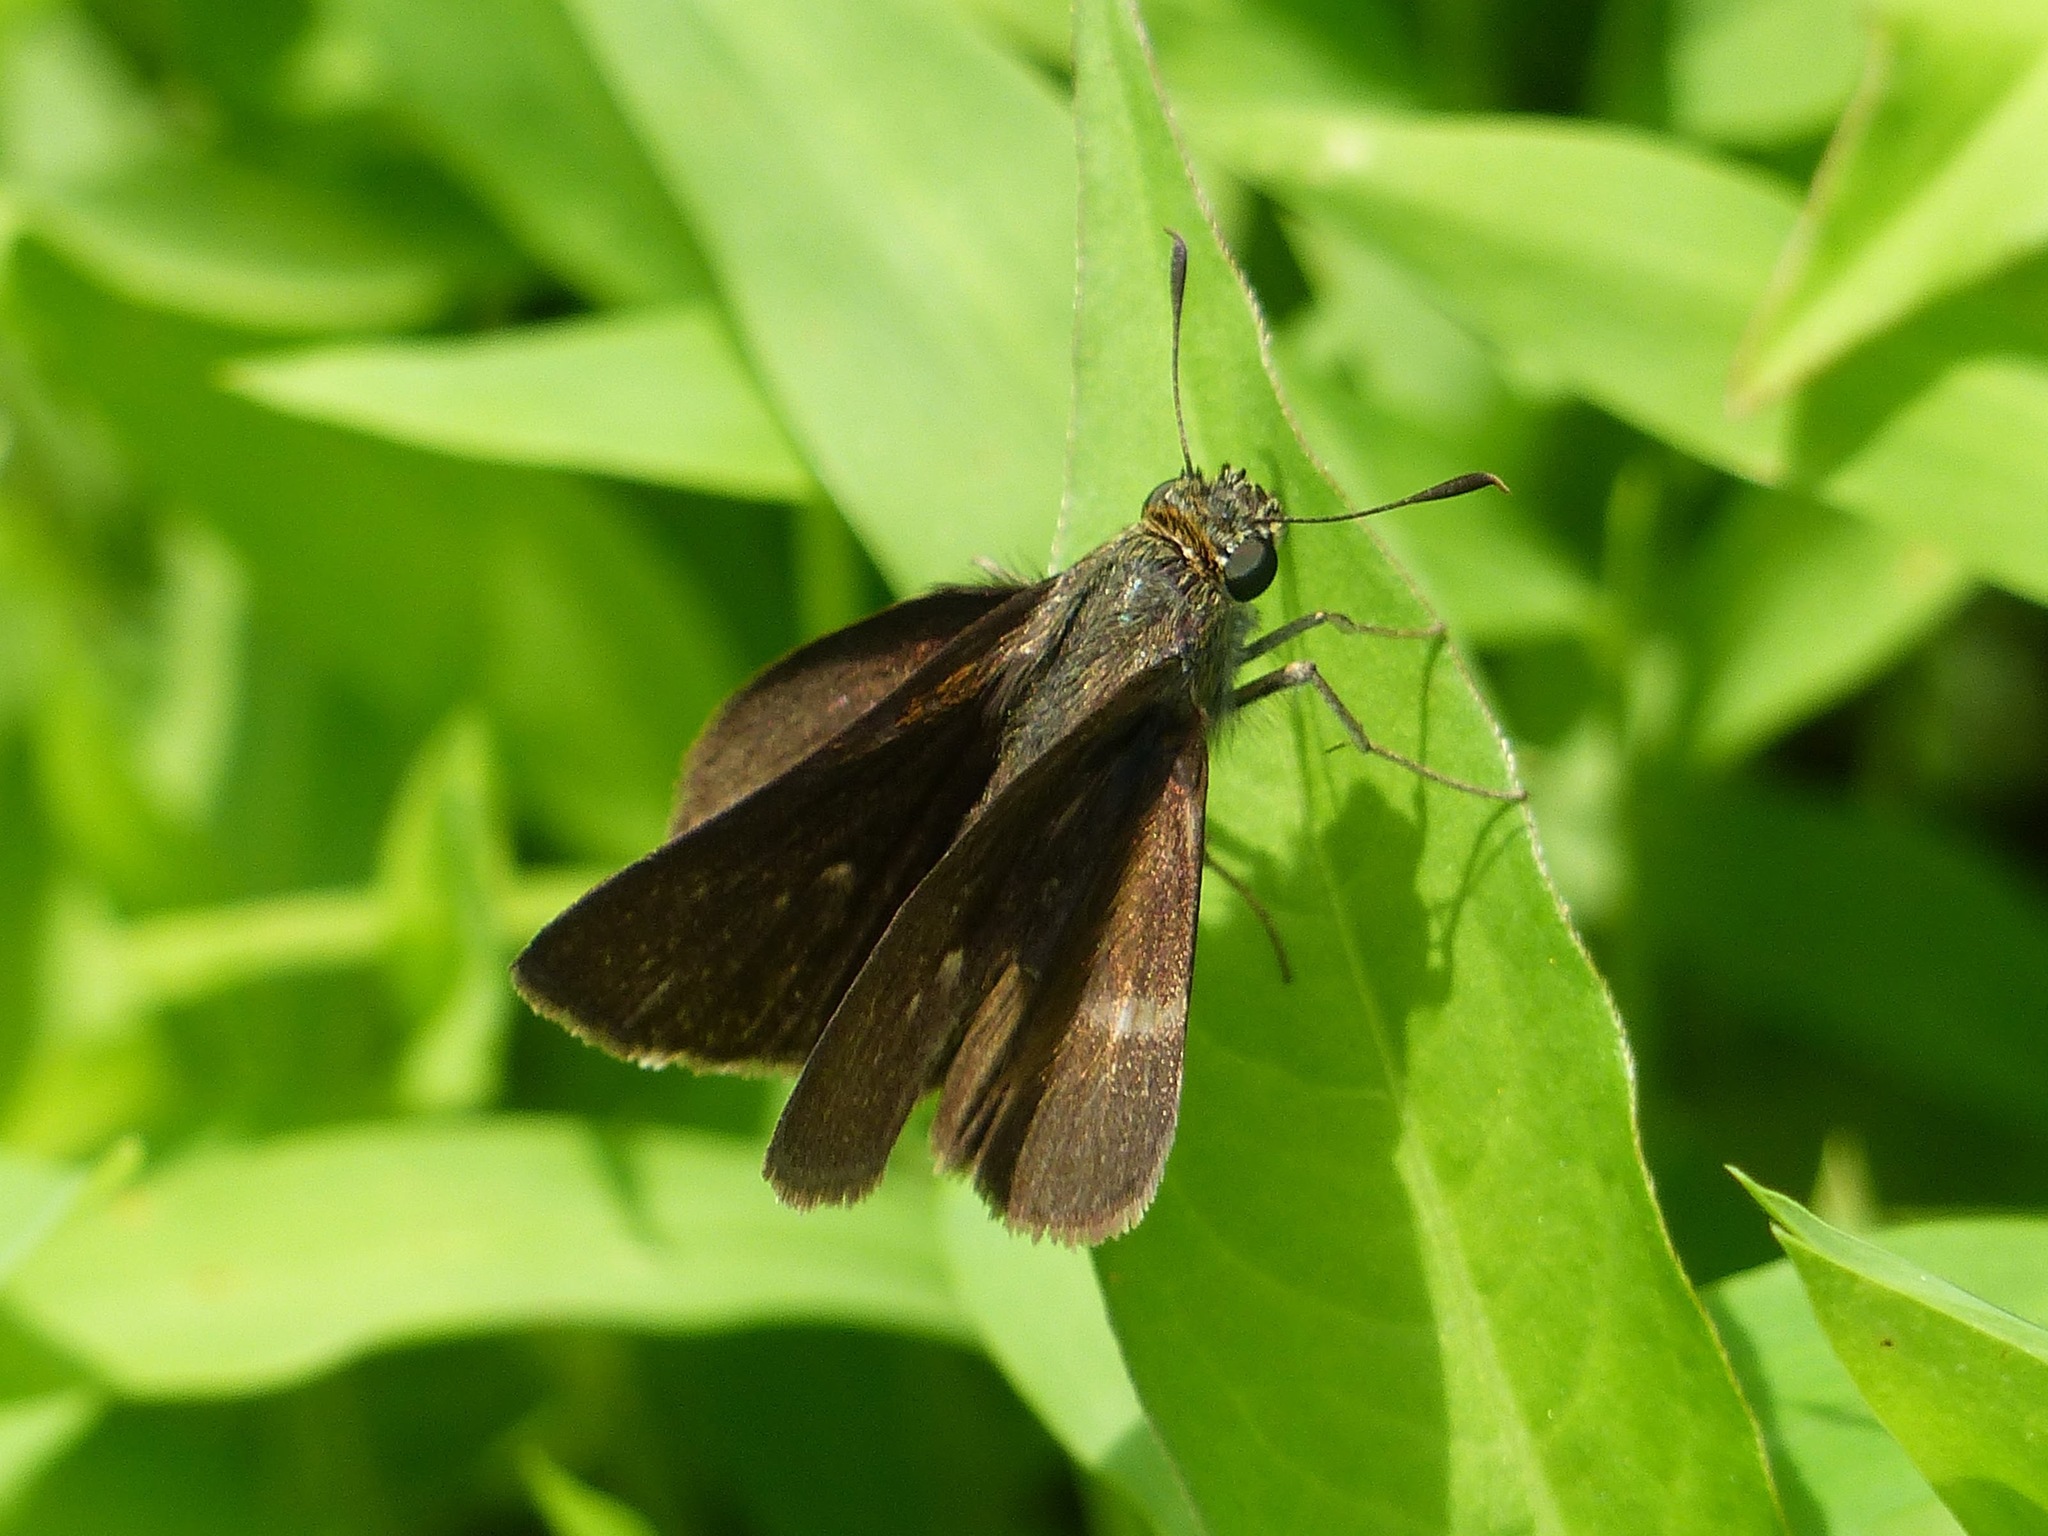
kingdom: Animalia
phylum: Arthropoda
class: Insecta
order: Lepidoptera
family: Hesperiidae
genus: Euphyes
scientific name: Euphyes vestris
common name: Dun skipper
